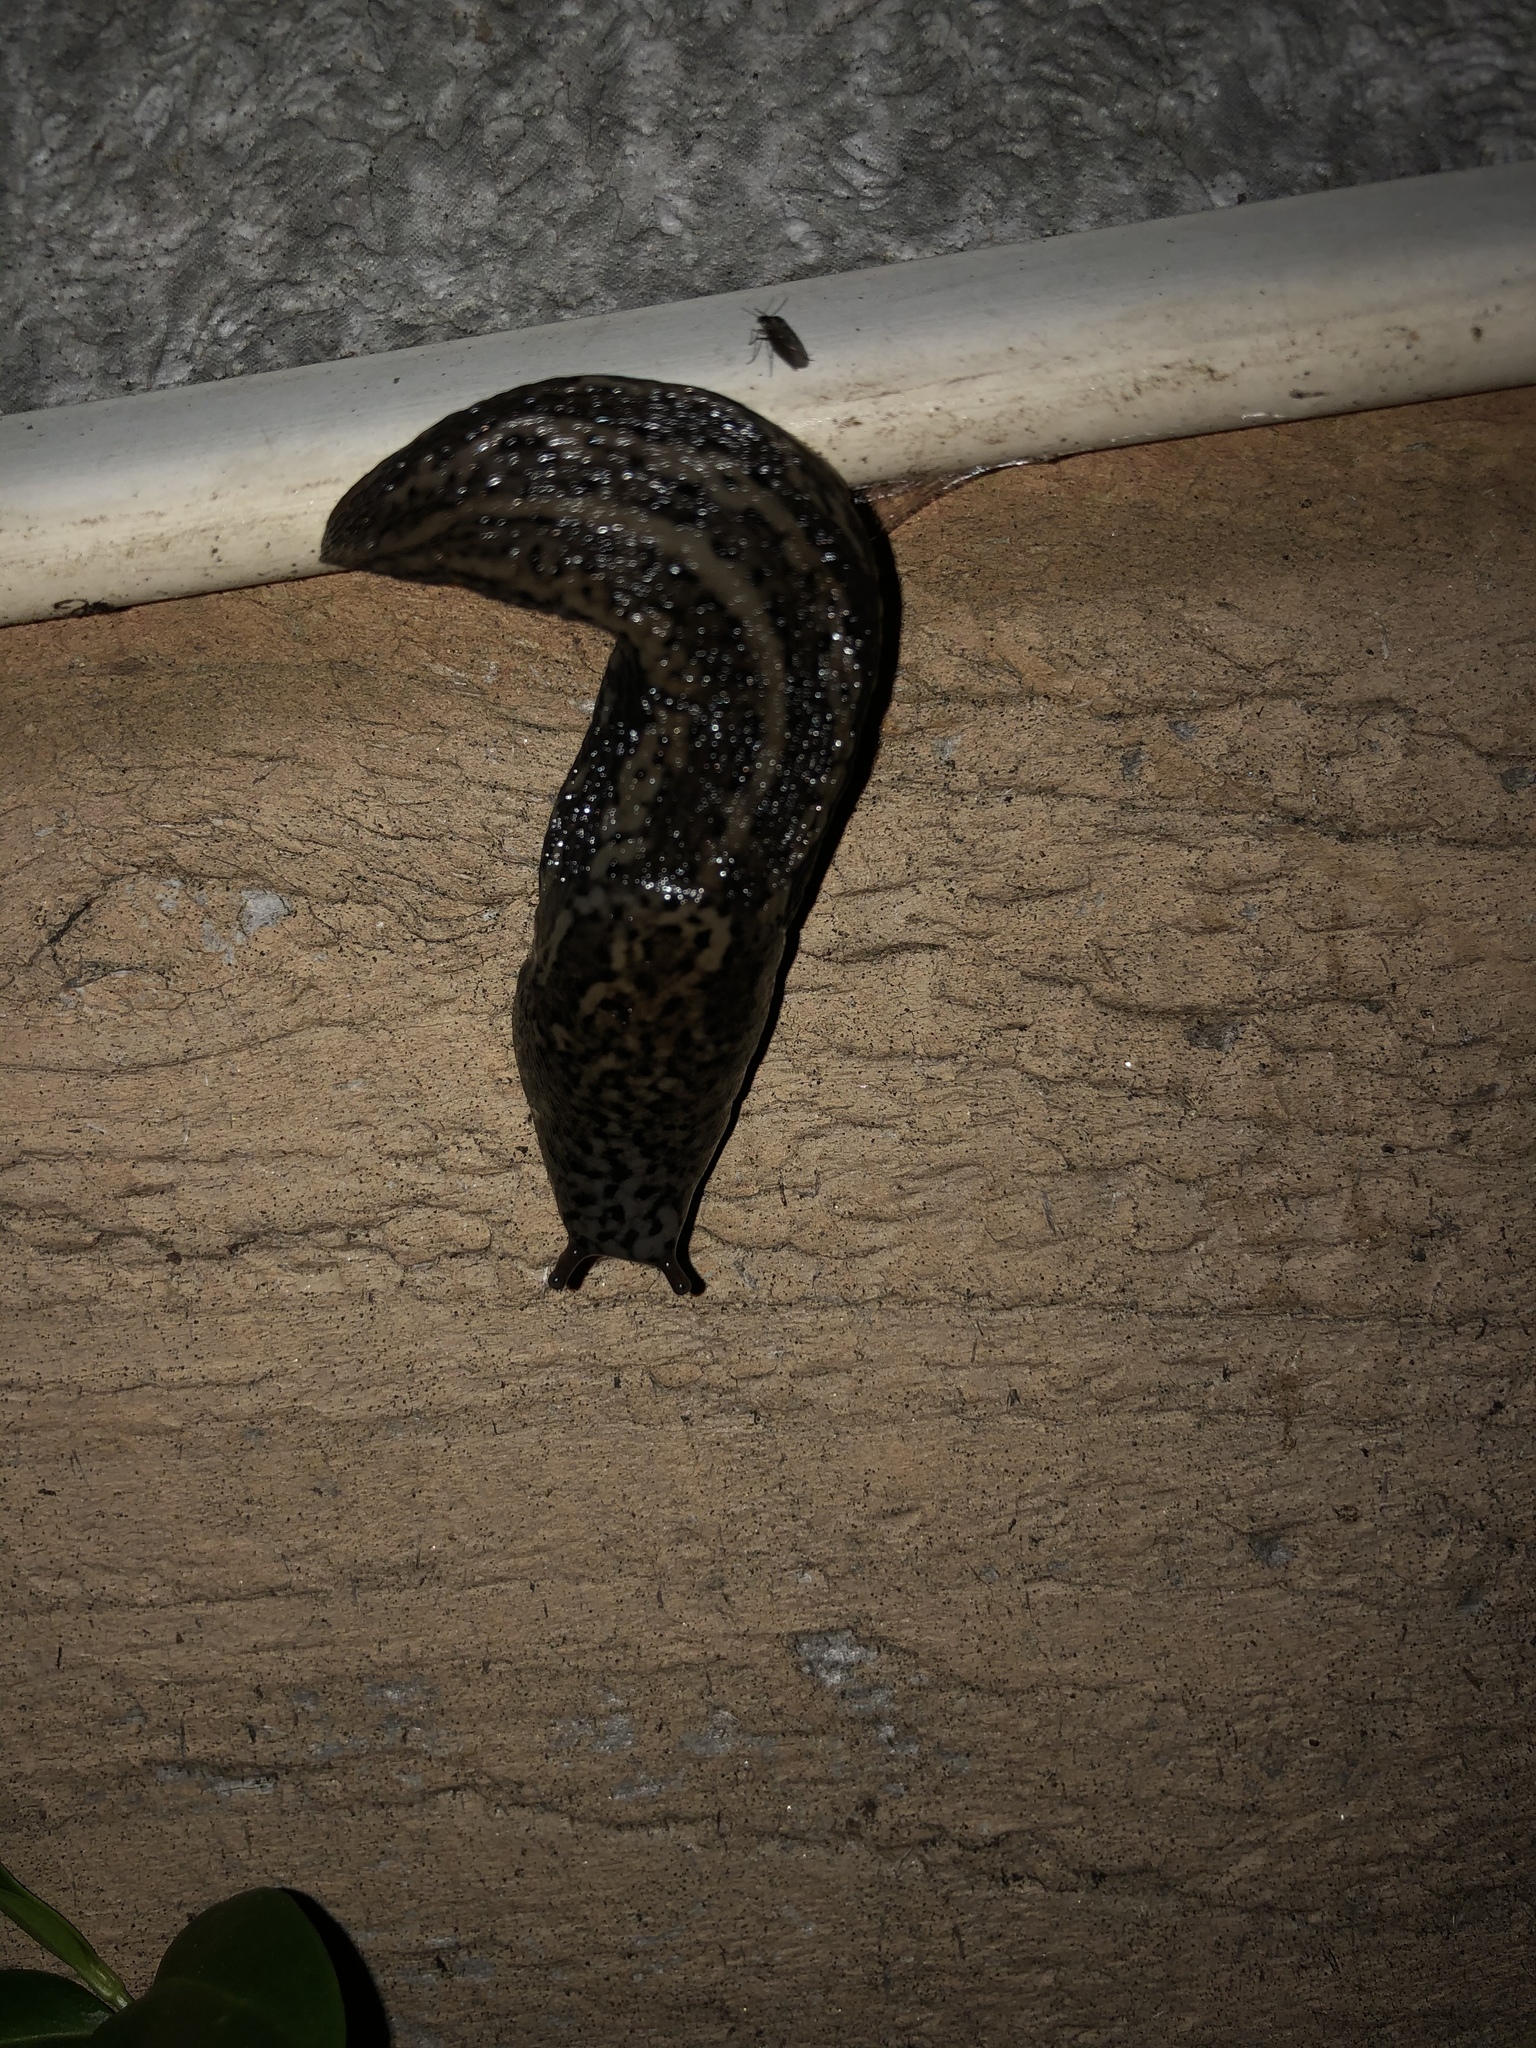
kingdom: Animalia
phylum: Mollusca
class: Gastropoda
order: Stylommatophora
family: Limacidae
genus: Limax
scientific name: Limax maximus
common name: Great grey slug
